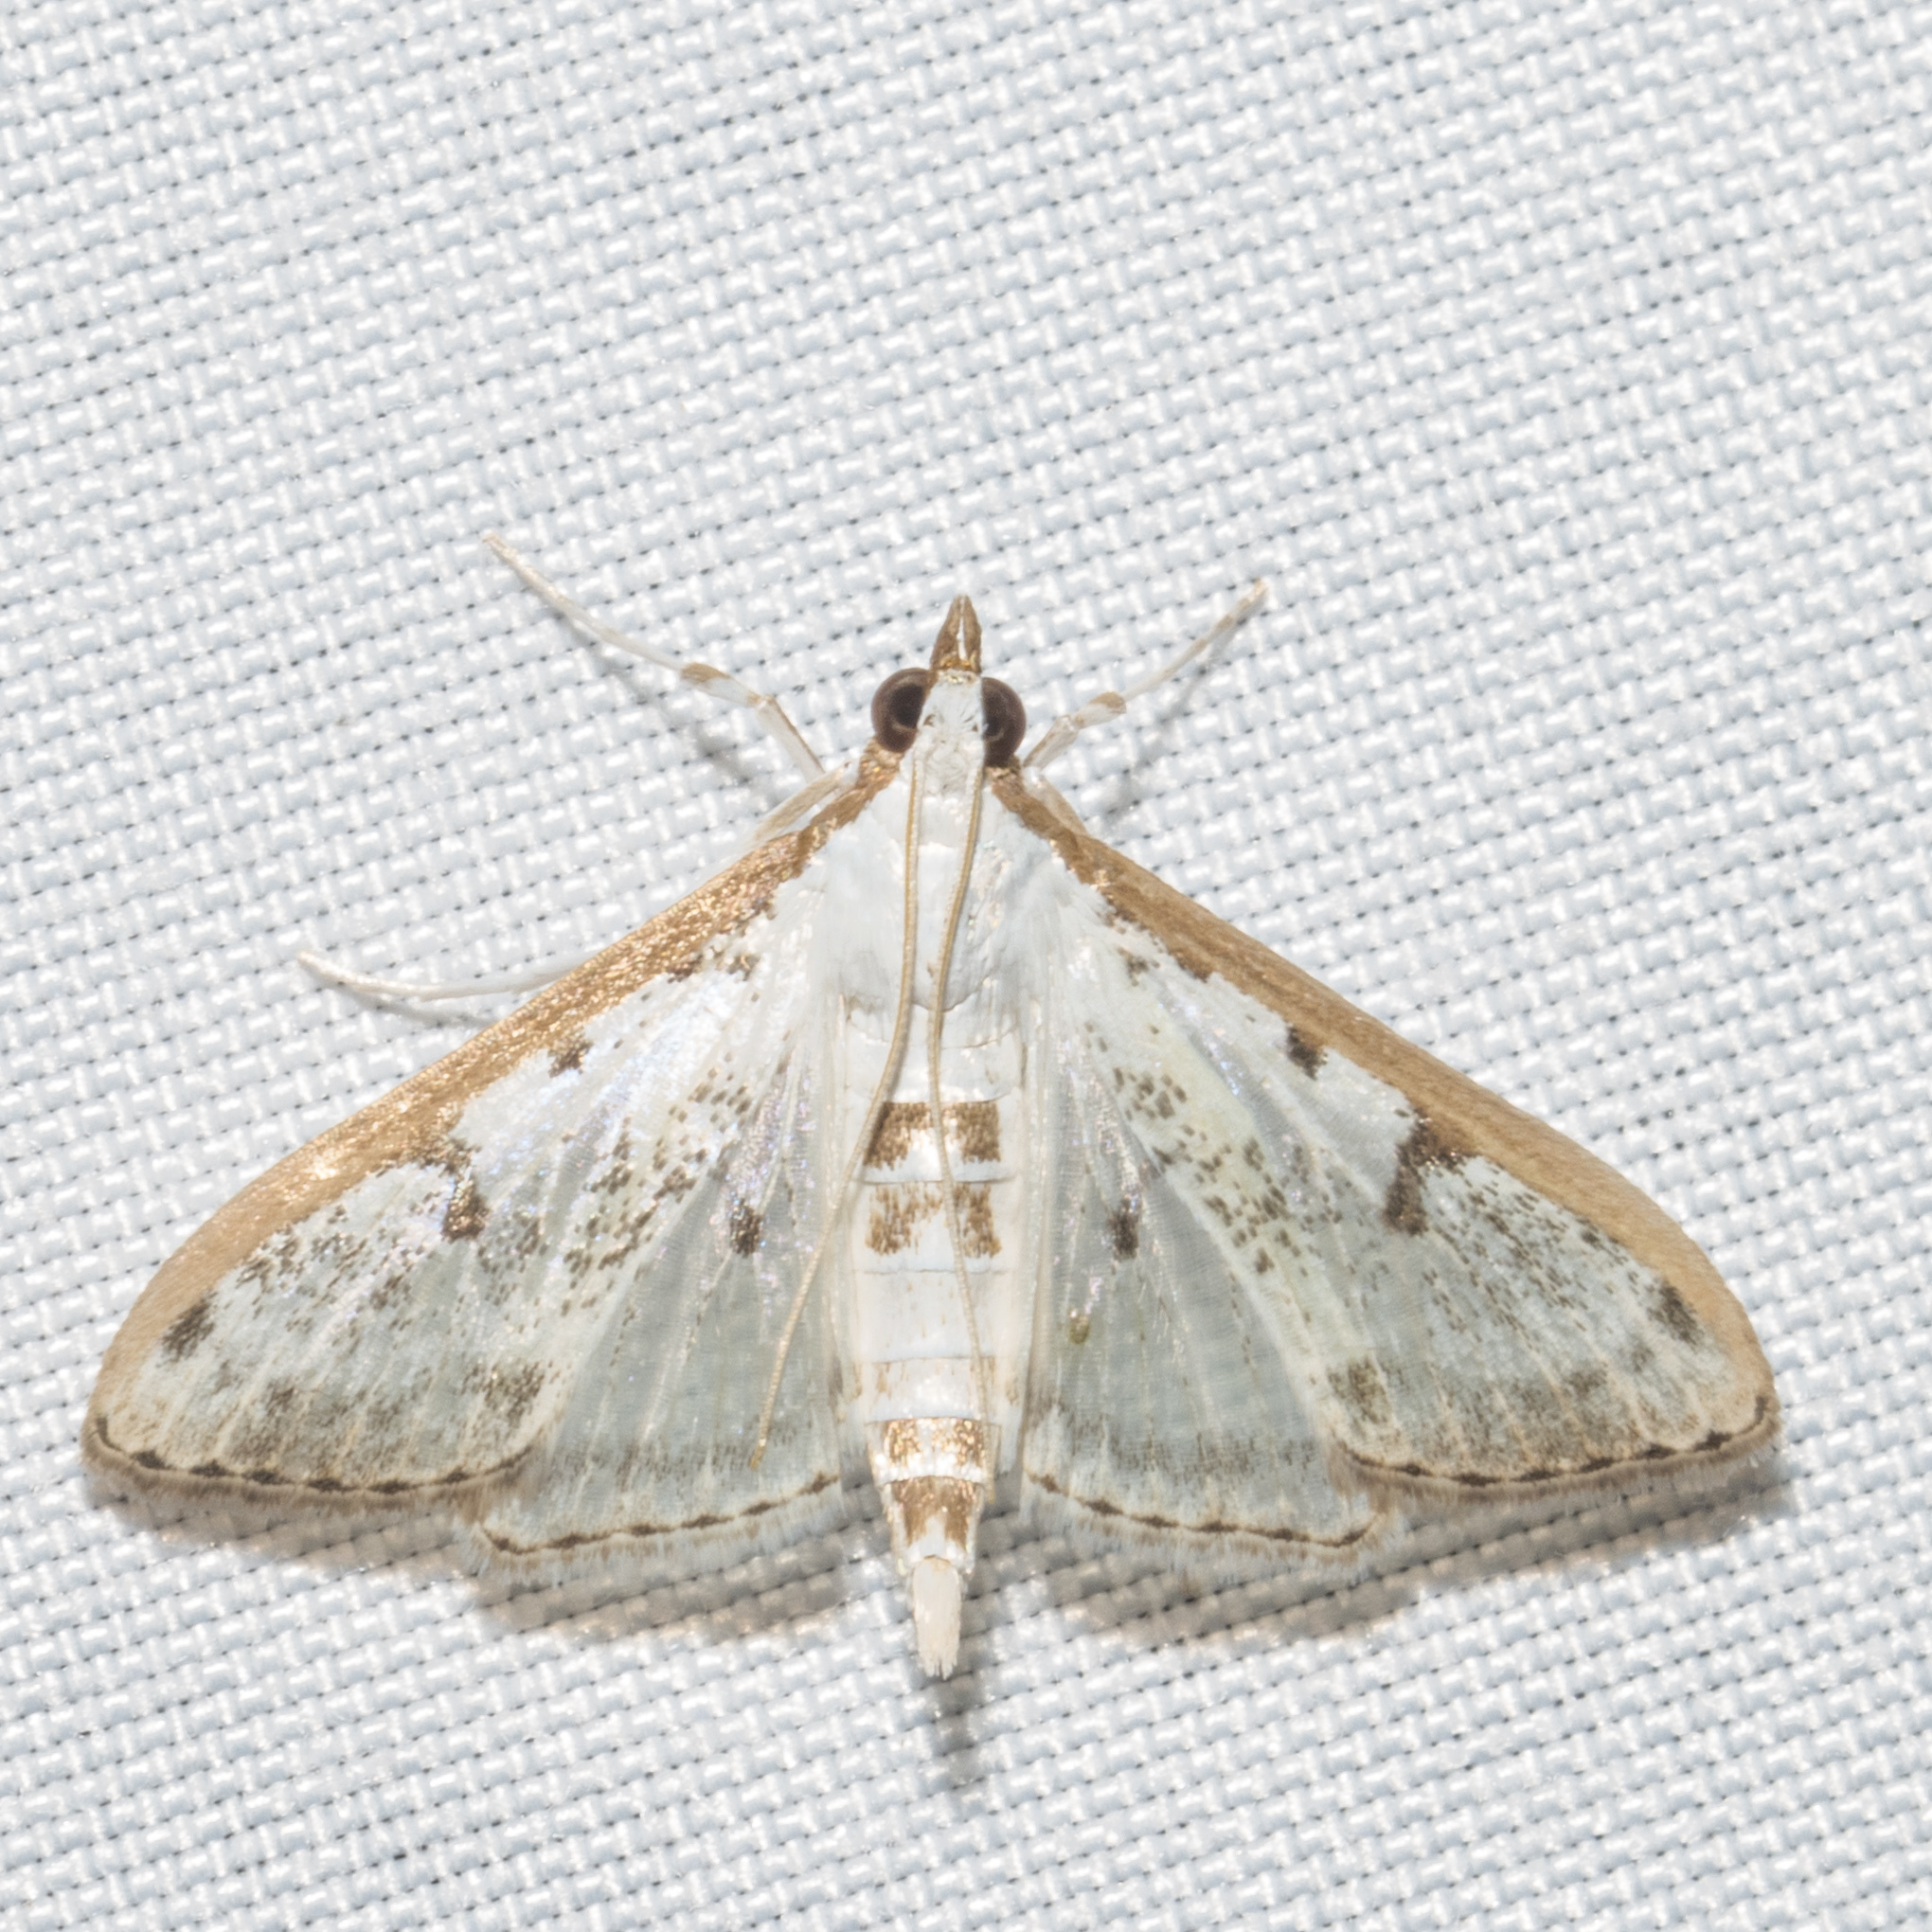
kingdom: Animalia
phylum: Arthropoda
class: Insecta
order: Lepidoptera
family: Crambidae
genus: Palpita
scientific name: Palpita gracilalis
